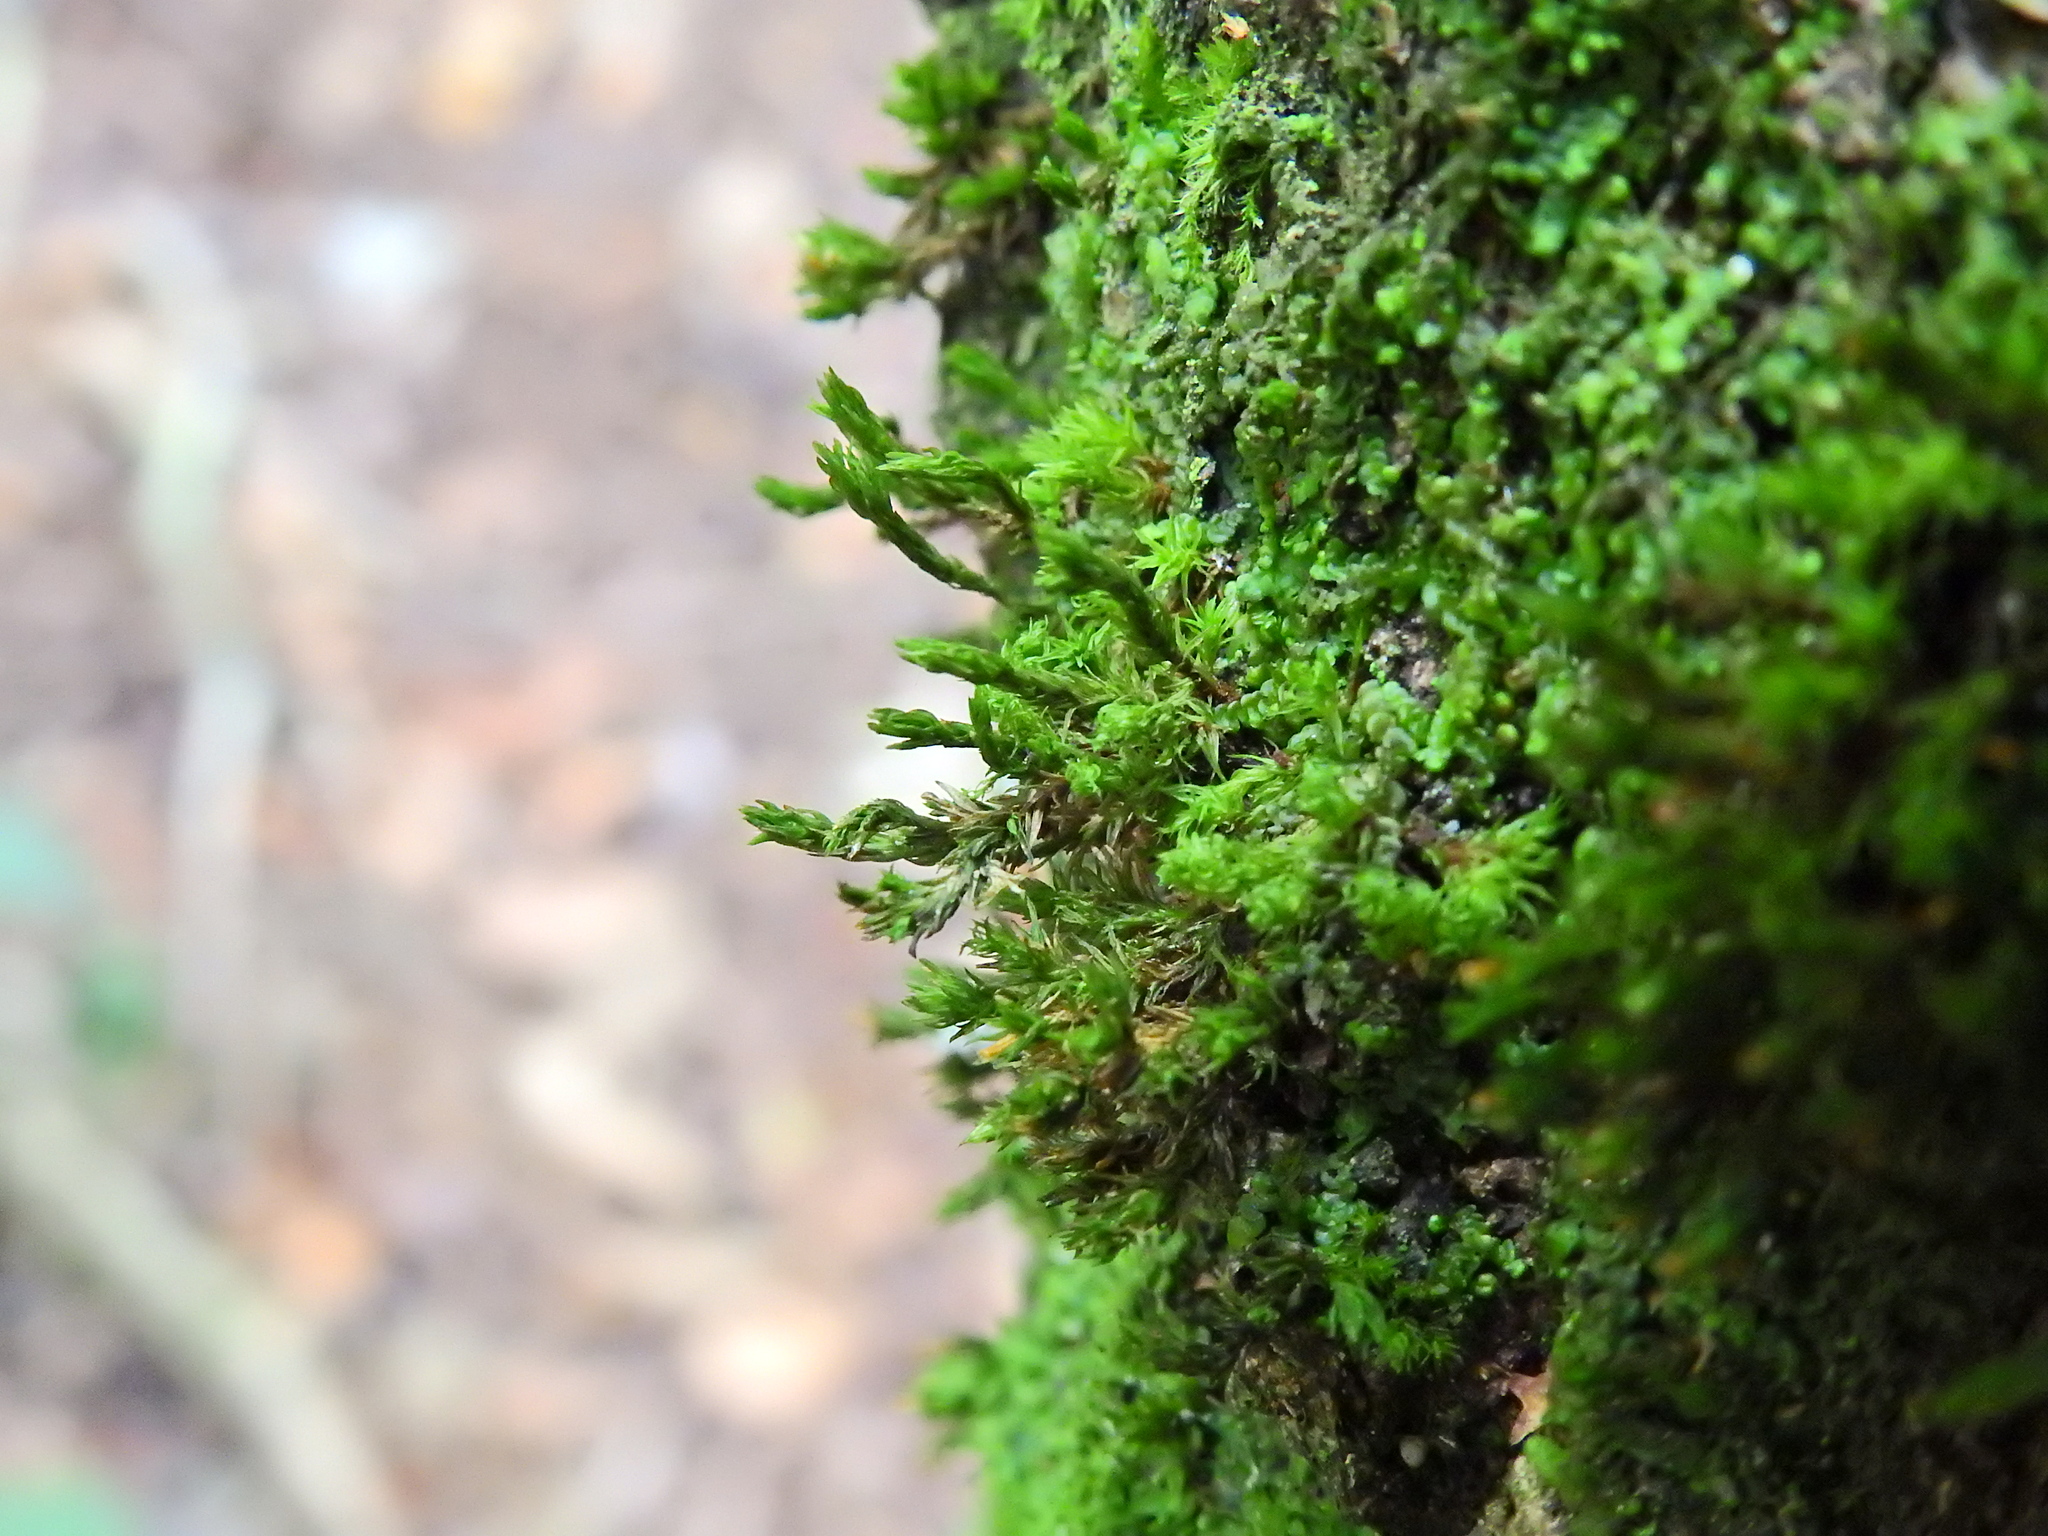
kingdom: Plantae
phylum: Bryophyta
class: Bryopsida
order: Hypnales
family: Cryphaeaceae
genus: Cryphaea
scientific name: Cryphaea heteromalla
